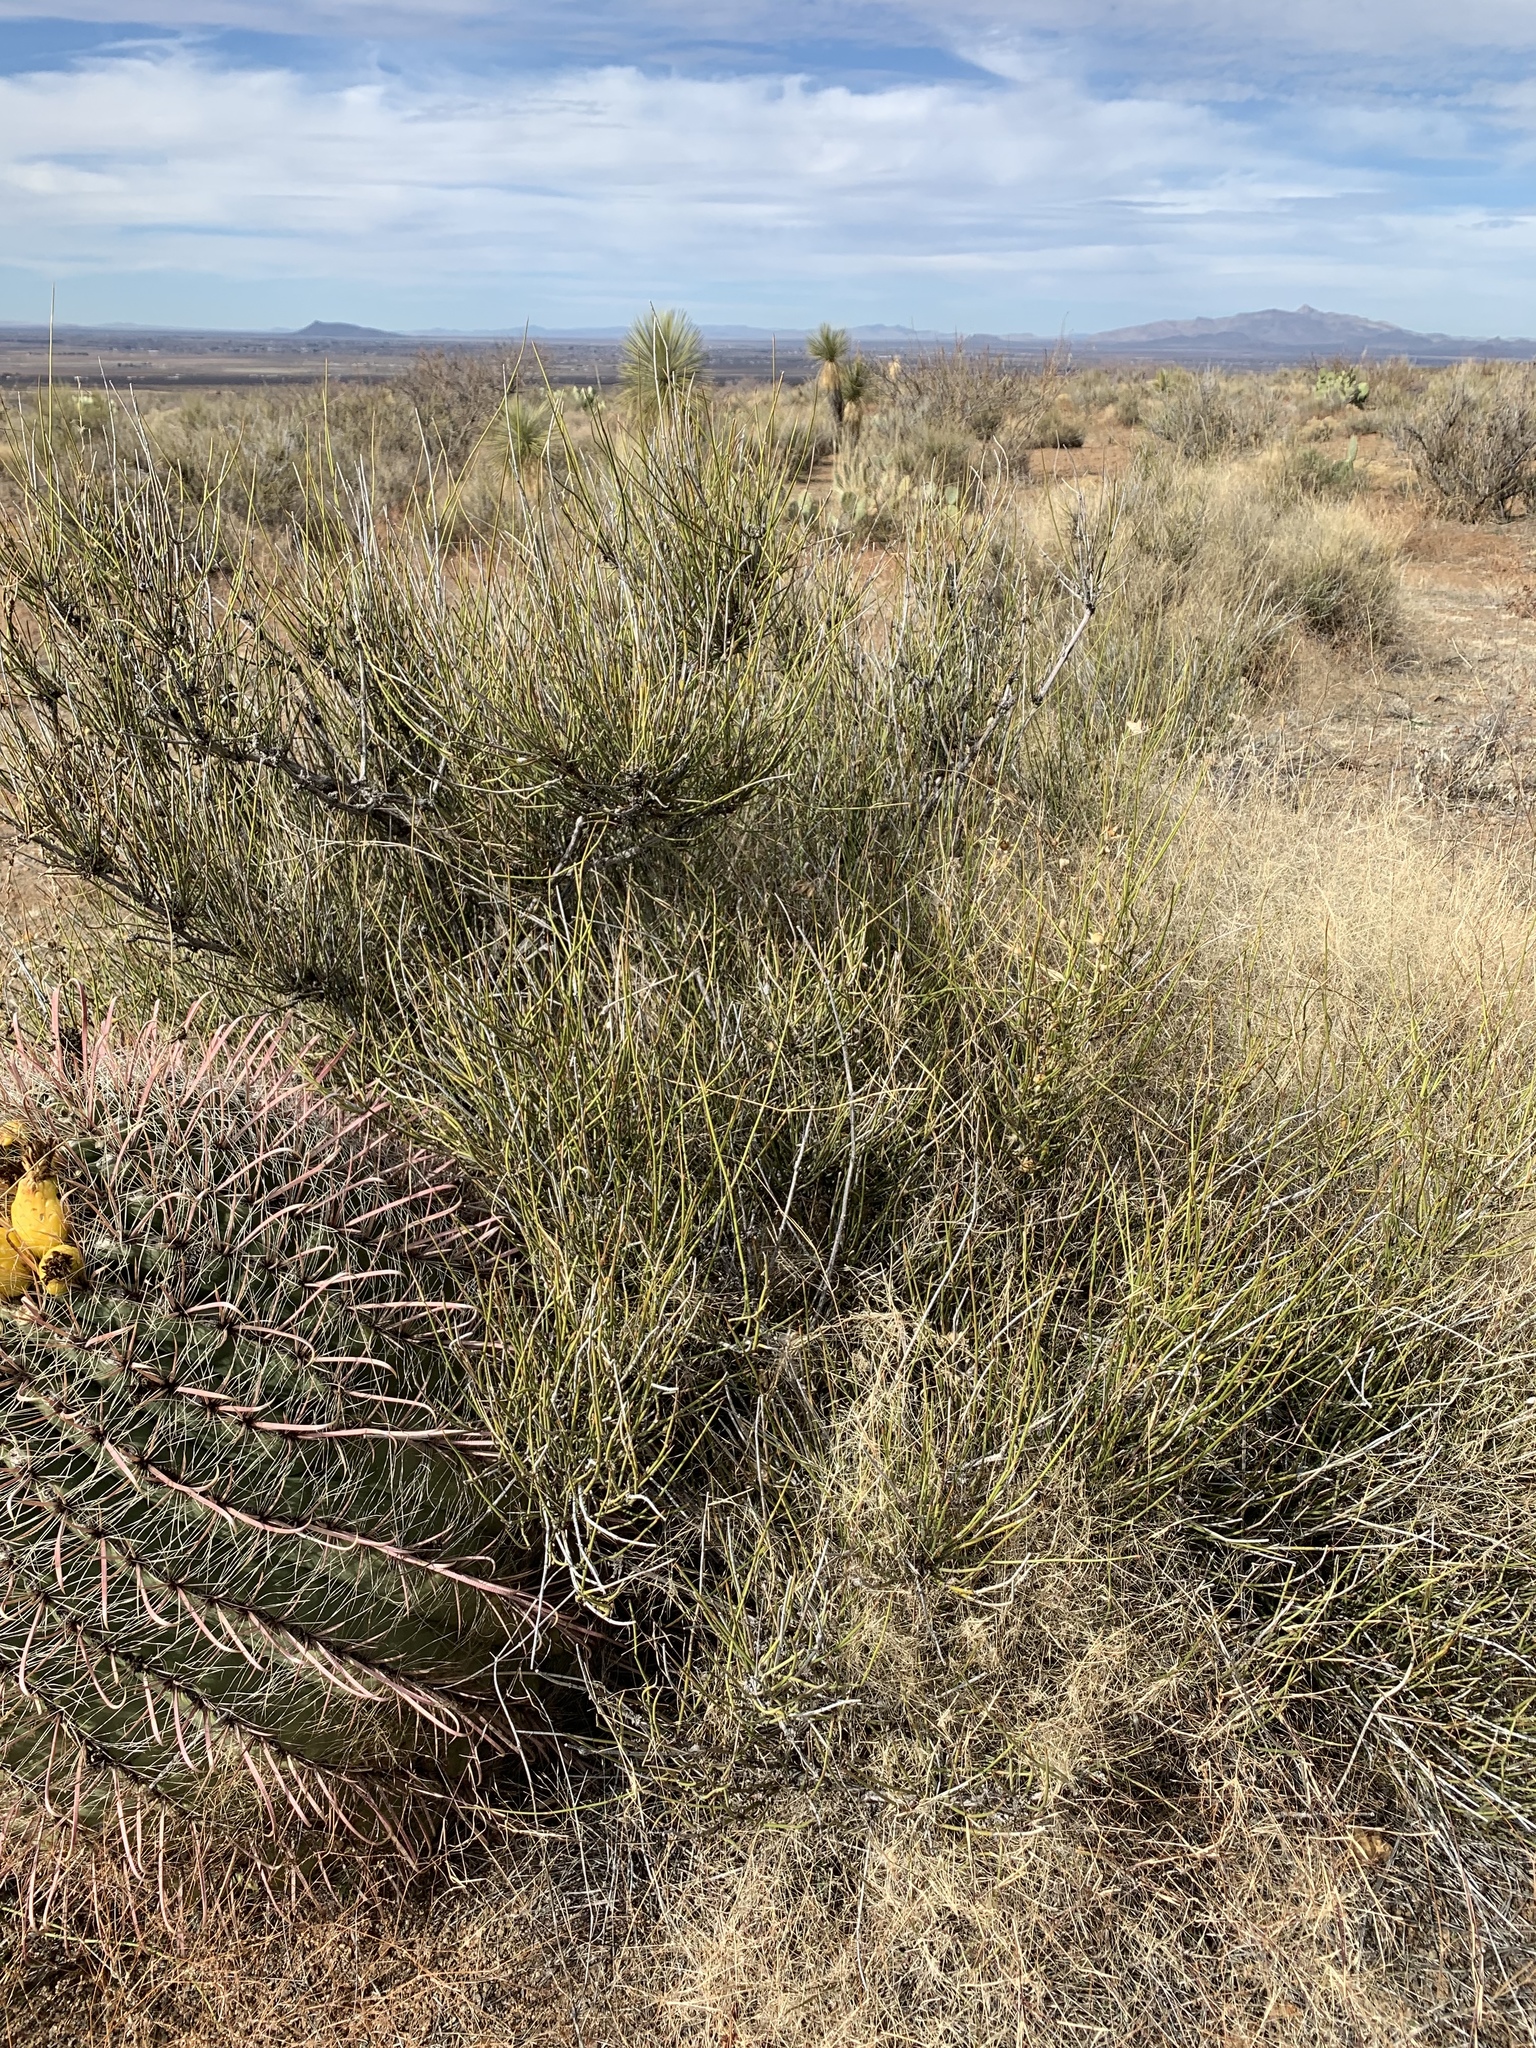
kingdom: Plantae
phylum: Tracheophyta
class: Gnetopsida
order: Ephedrales
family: Ephedraceae
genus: Ephedra
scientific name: Ephedra trifurca
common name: Mexican-tea
